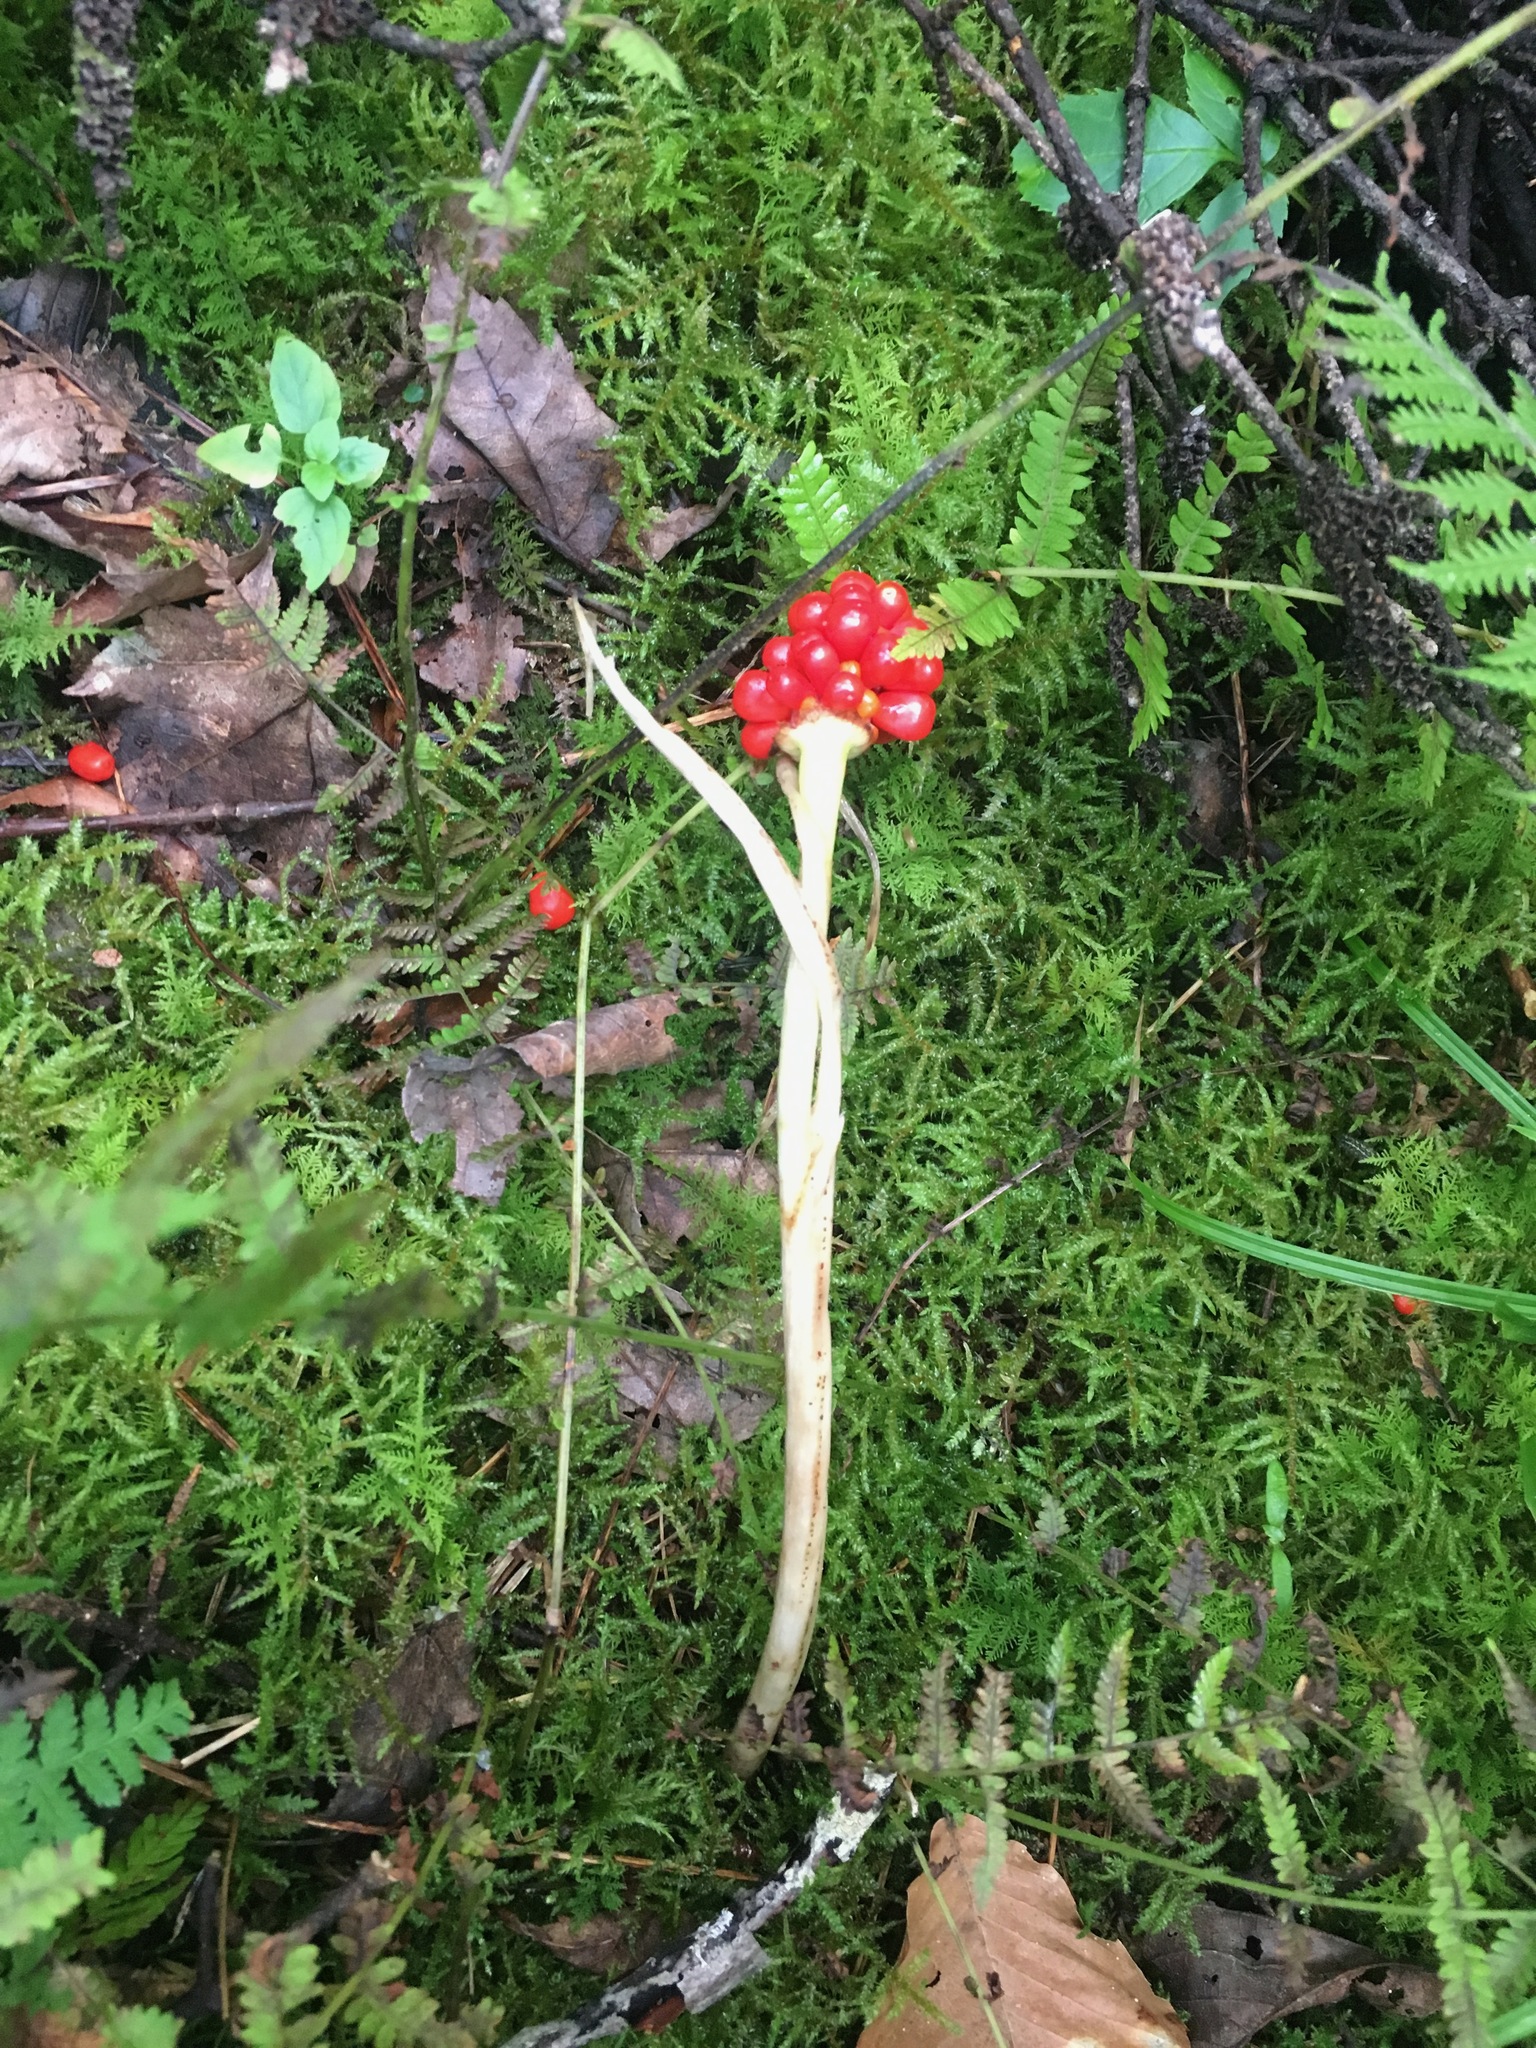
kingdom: Plantae
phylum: Tracheophyta
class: Liliopsida
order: Alismatales
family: Araceae
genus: Arisaema
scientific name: Arisaema triphyllum
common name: Jack-in-the-pulpit
